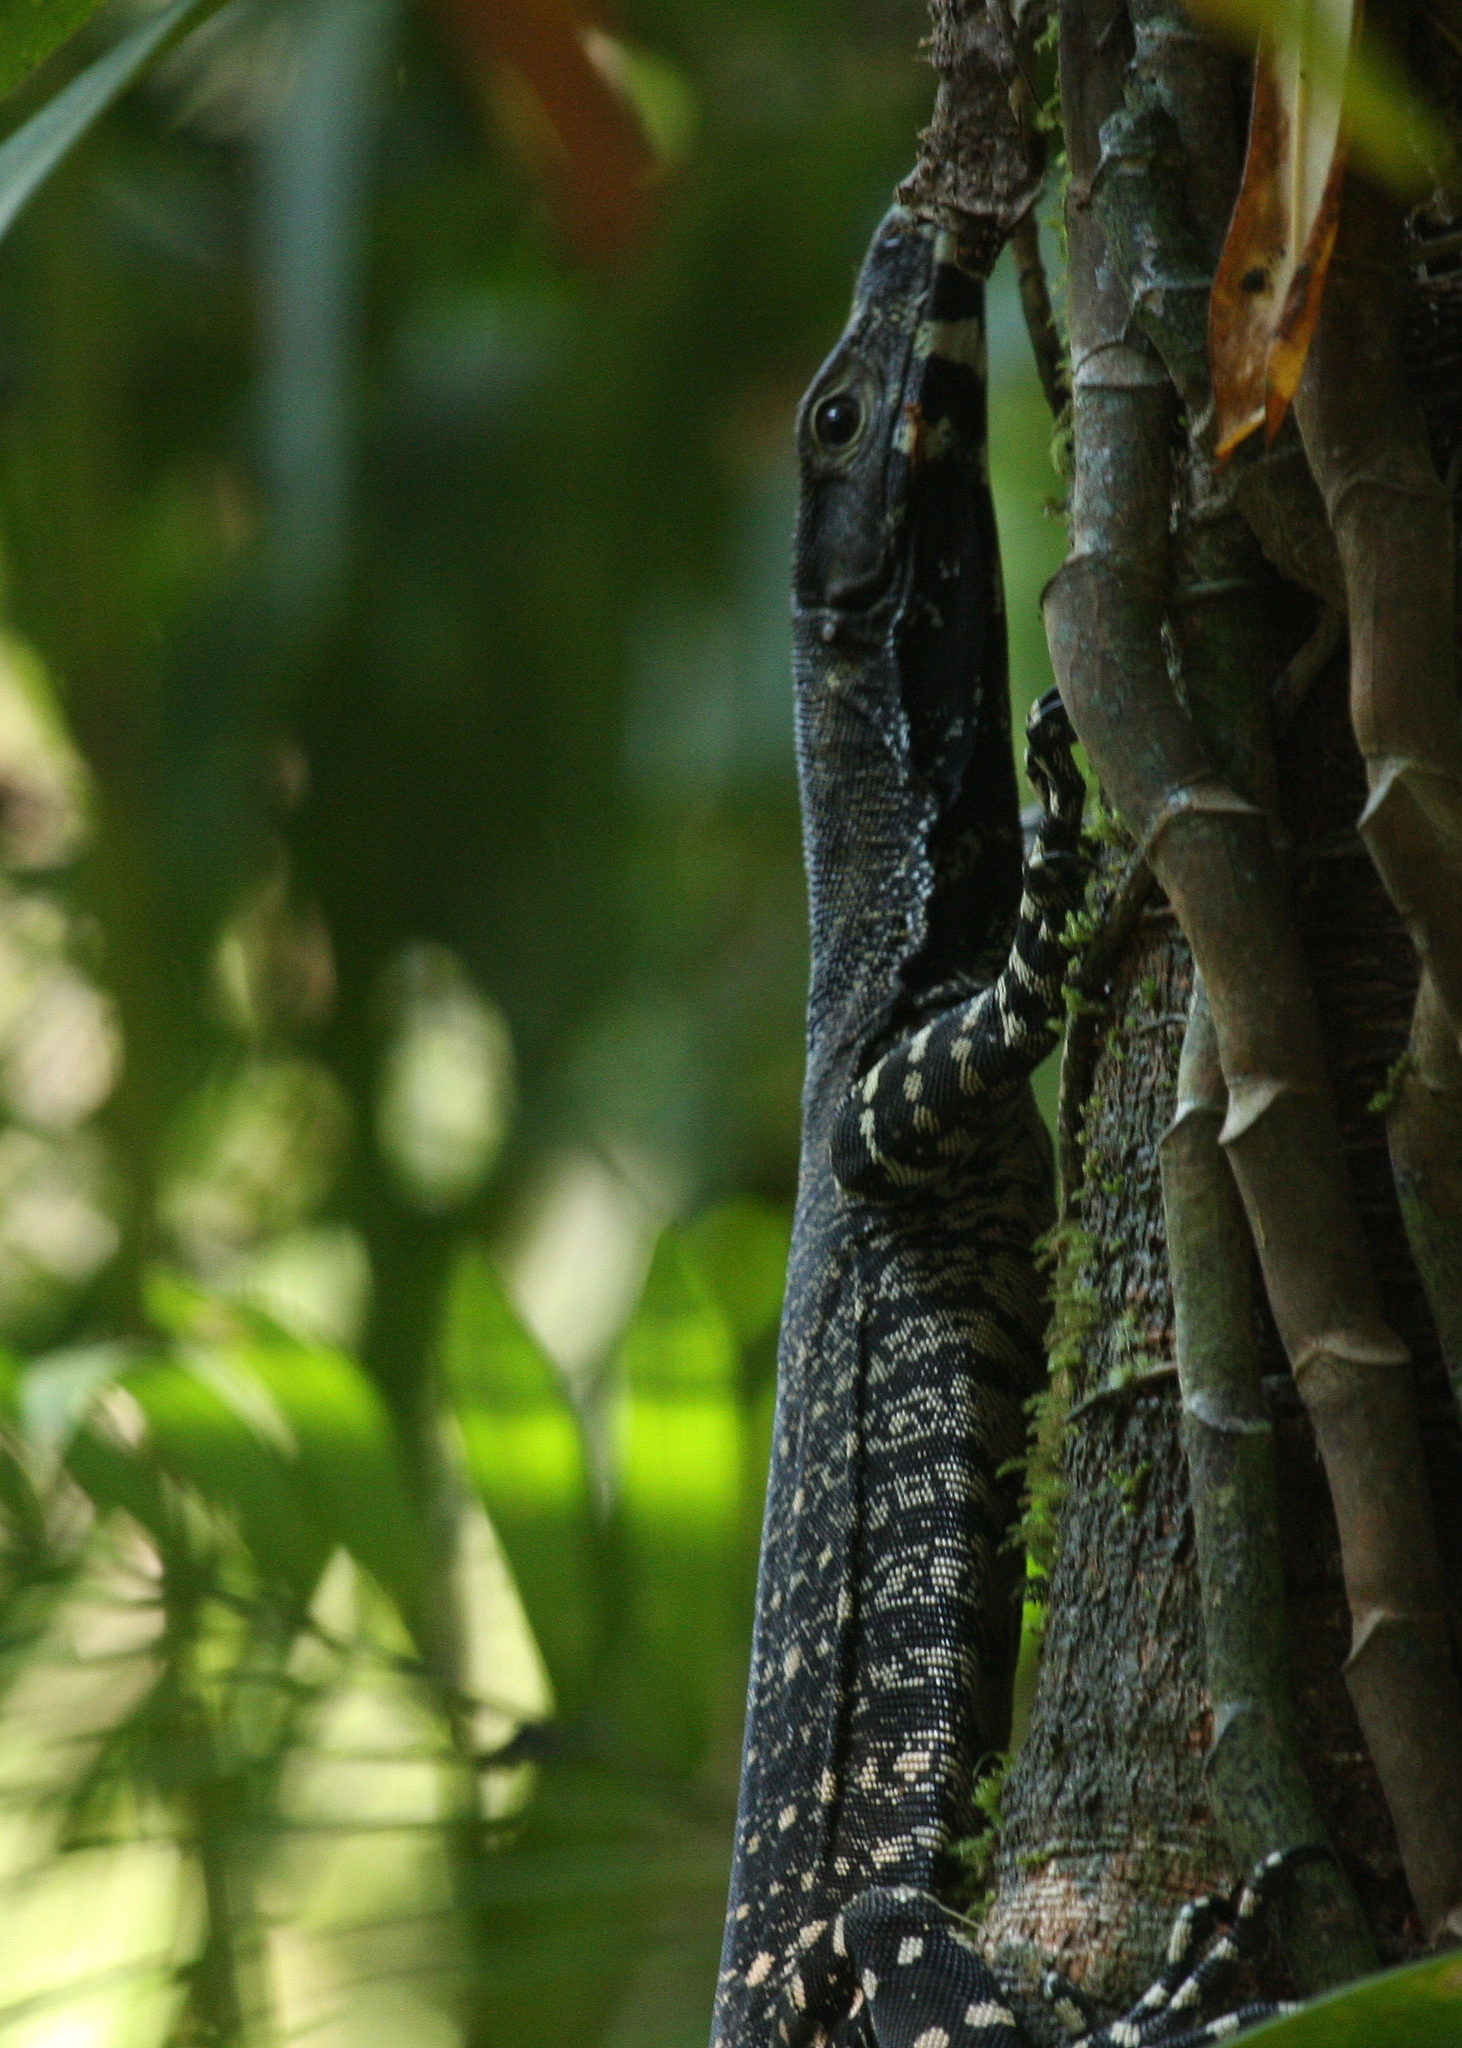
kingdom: Animalia
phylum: Chordata
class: Squamata
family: Varanidae
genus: Varanus
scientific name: Varanus varius
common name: Lace monitor
